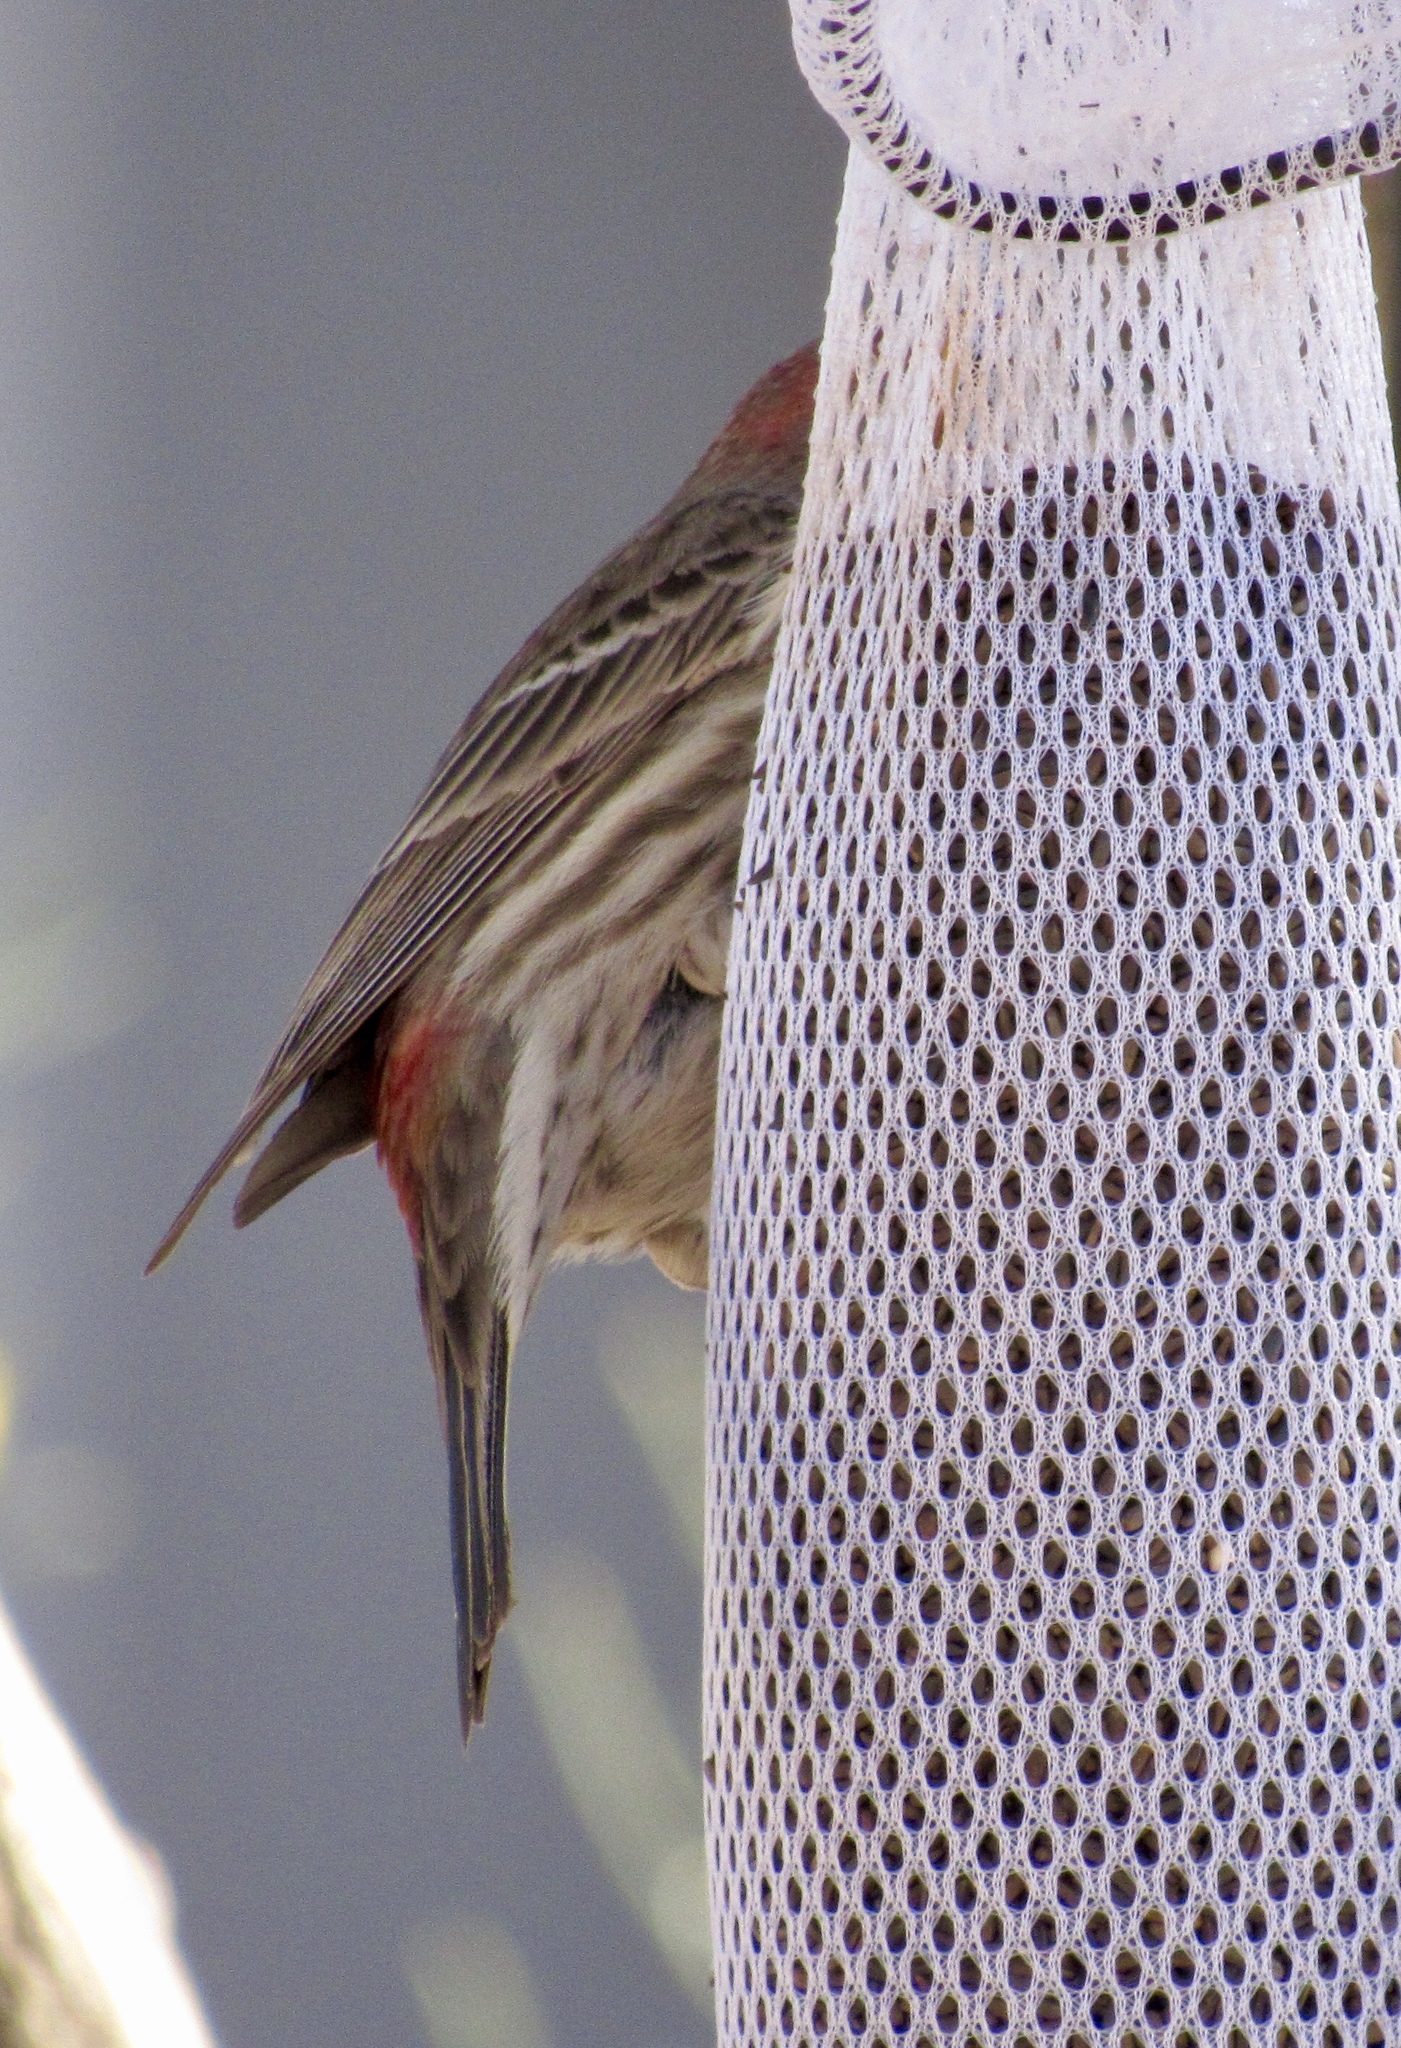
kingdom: Animalia
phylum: Chordata
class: Aves
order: Passeriformes
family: Fringillidae
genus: Haemorhous
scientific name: Haemorhous mexicanus
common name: House finch
